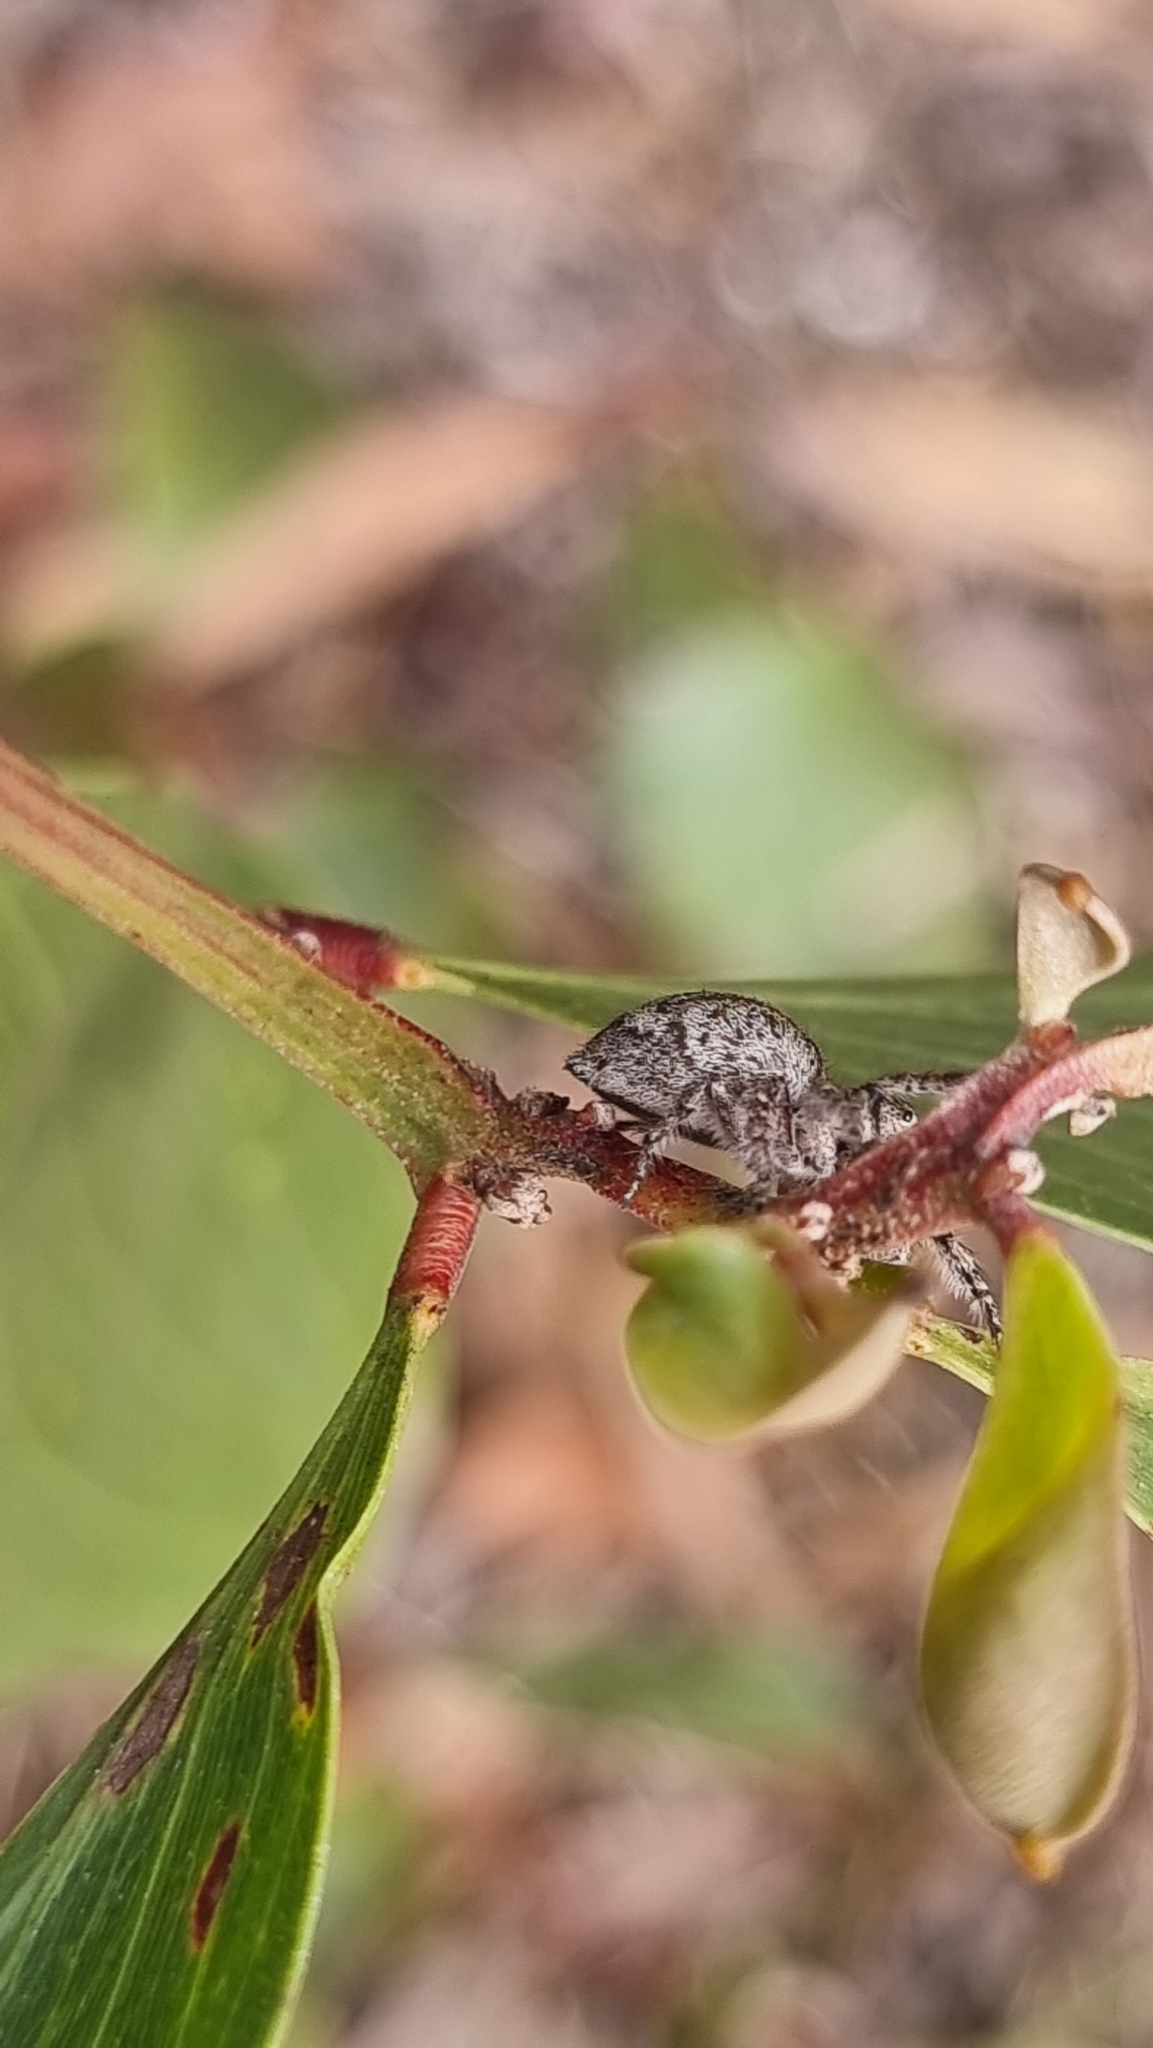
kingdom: Animalia
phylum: Arthropoda
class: Arachnida
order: Araneae
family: Salticidae
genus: Cytaea
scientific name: Cytaea aspera
